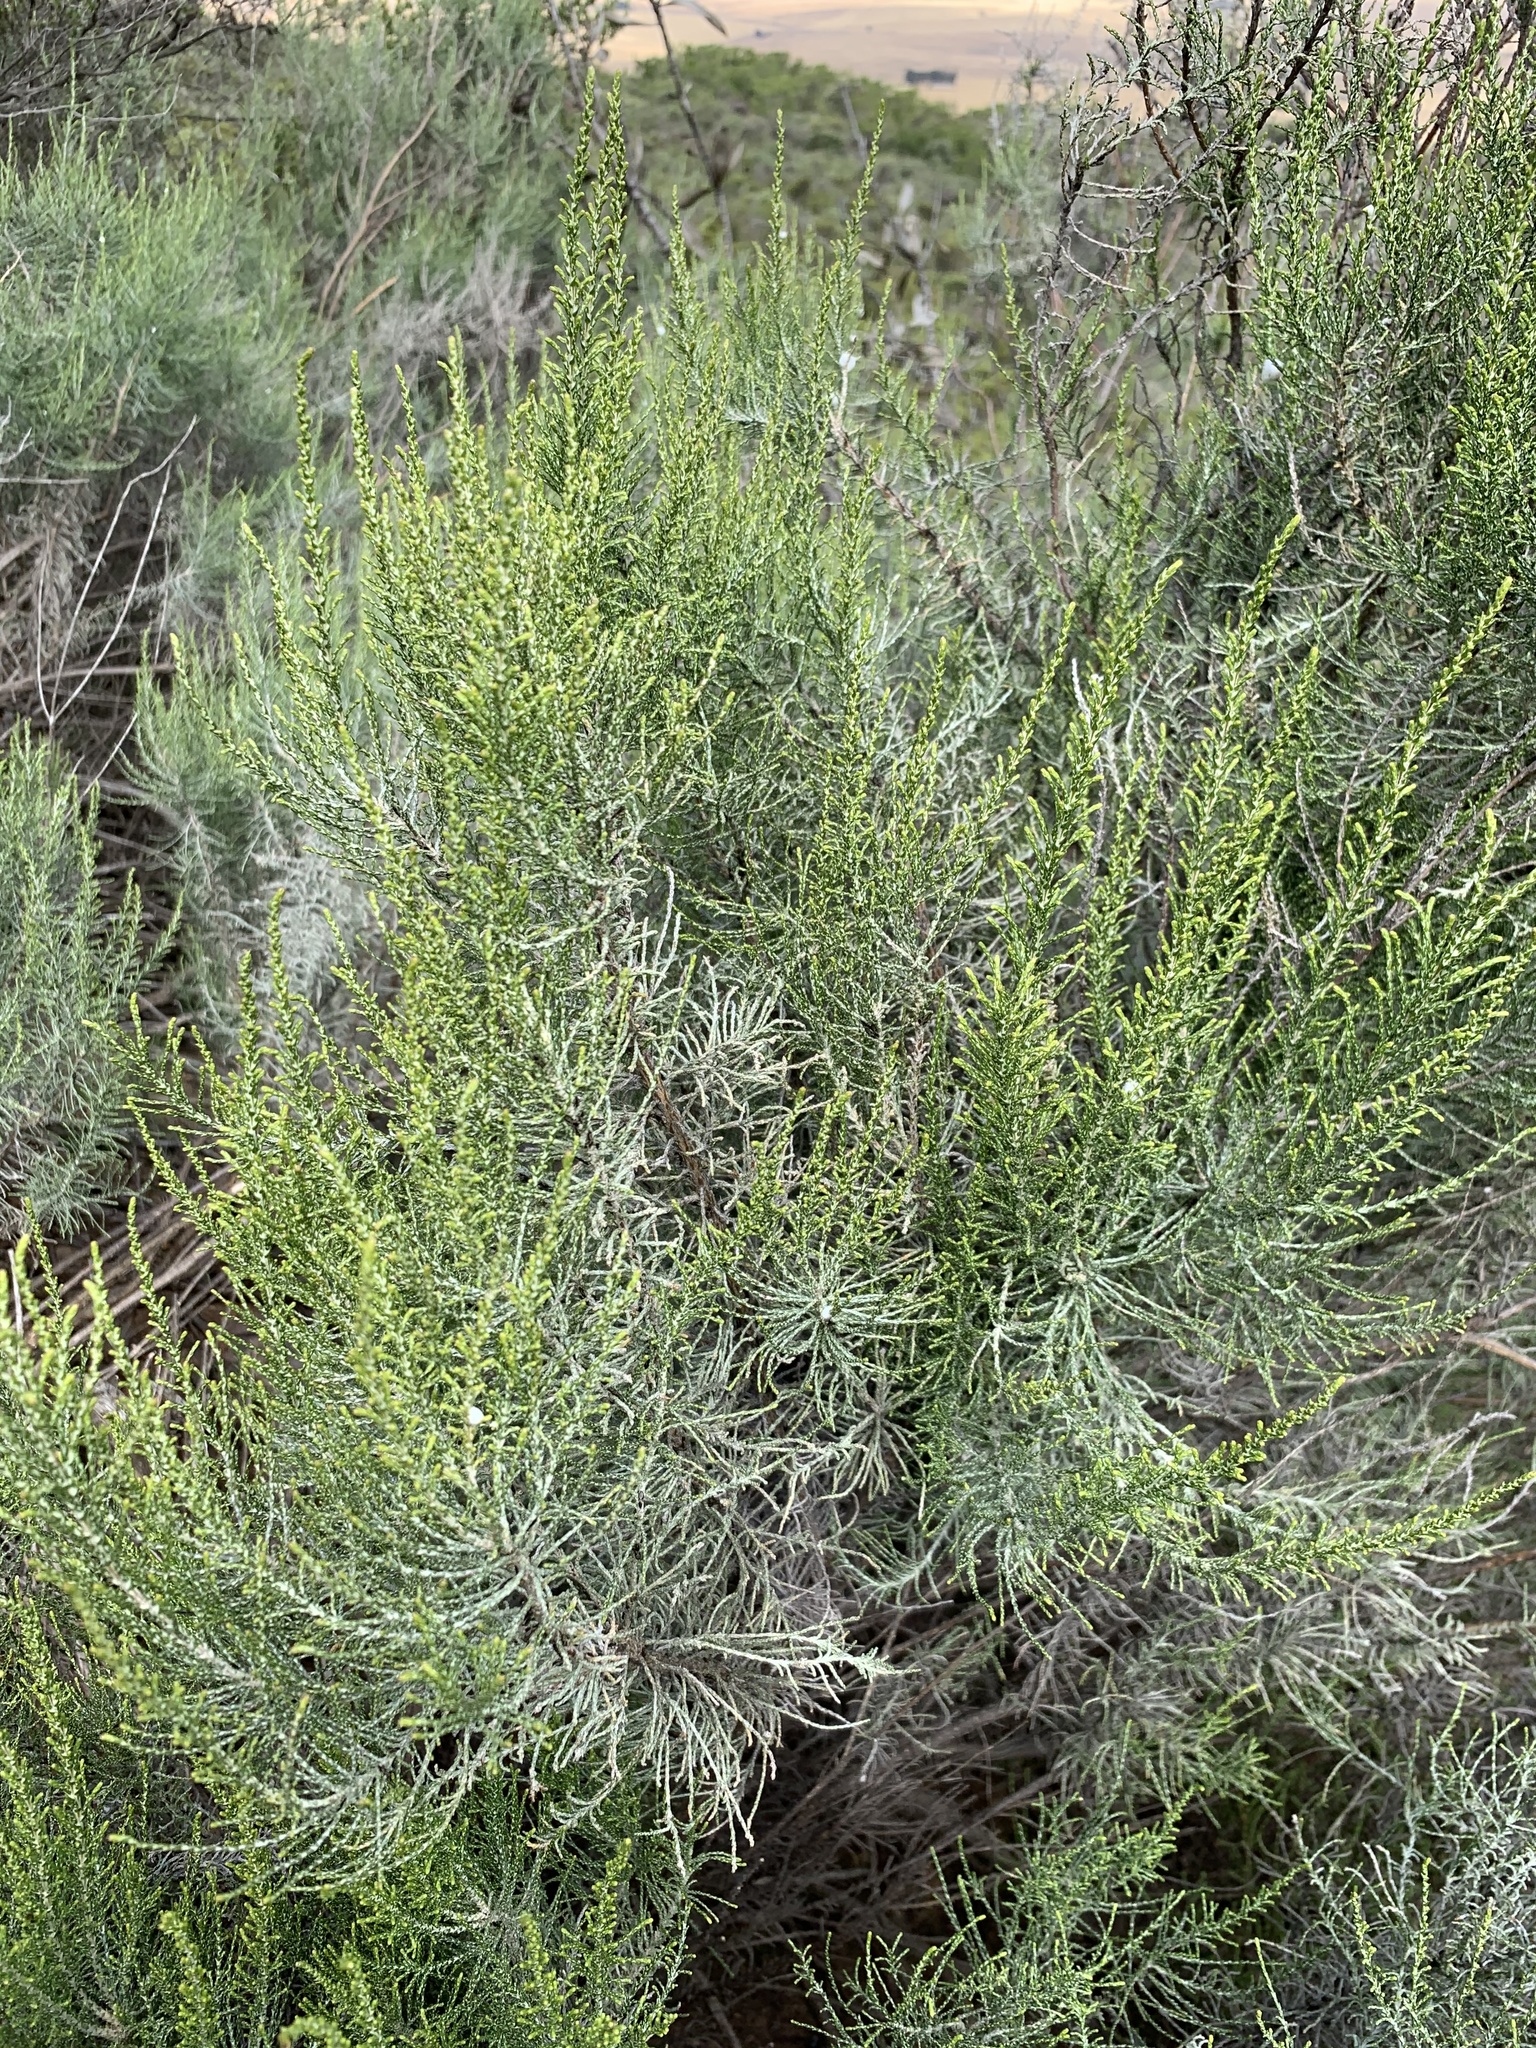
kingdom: Plantae
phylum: Tracheophyta
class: Magnoliopsida
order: Asterales
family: Asteraceae
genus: Dicerothamnus
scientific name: Dicerothamnus rhinocerotis
